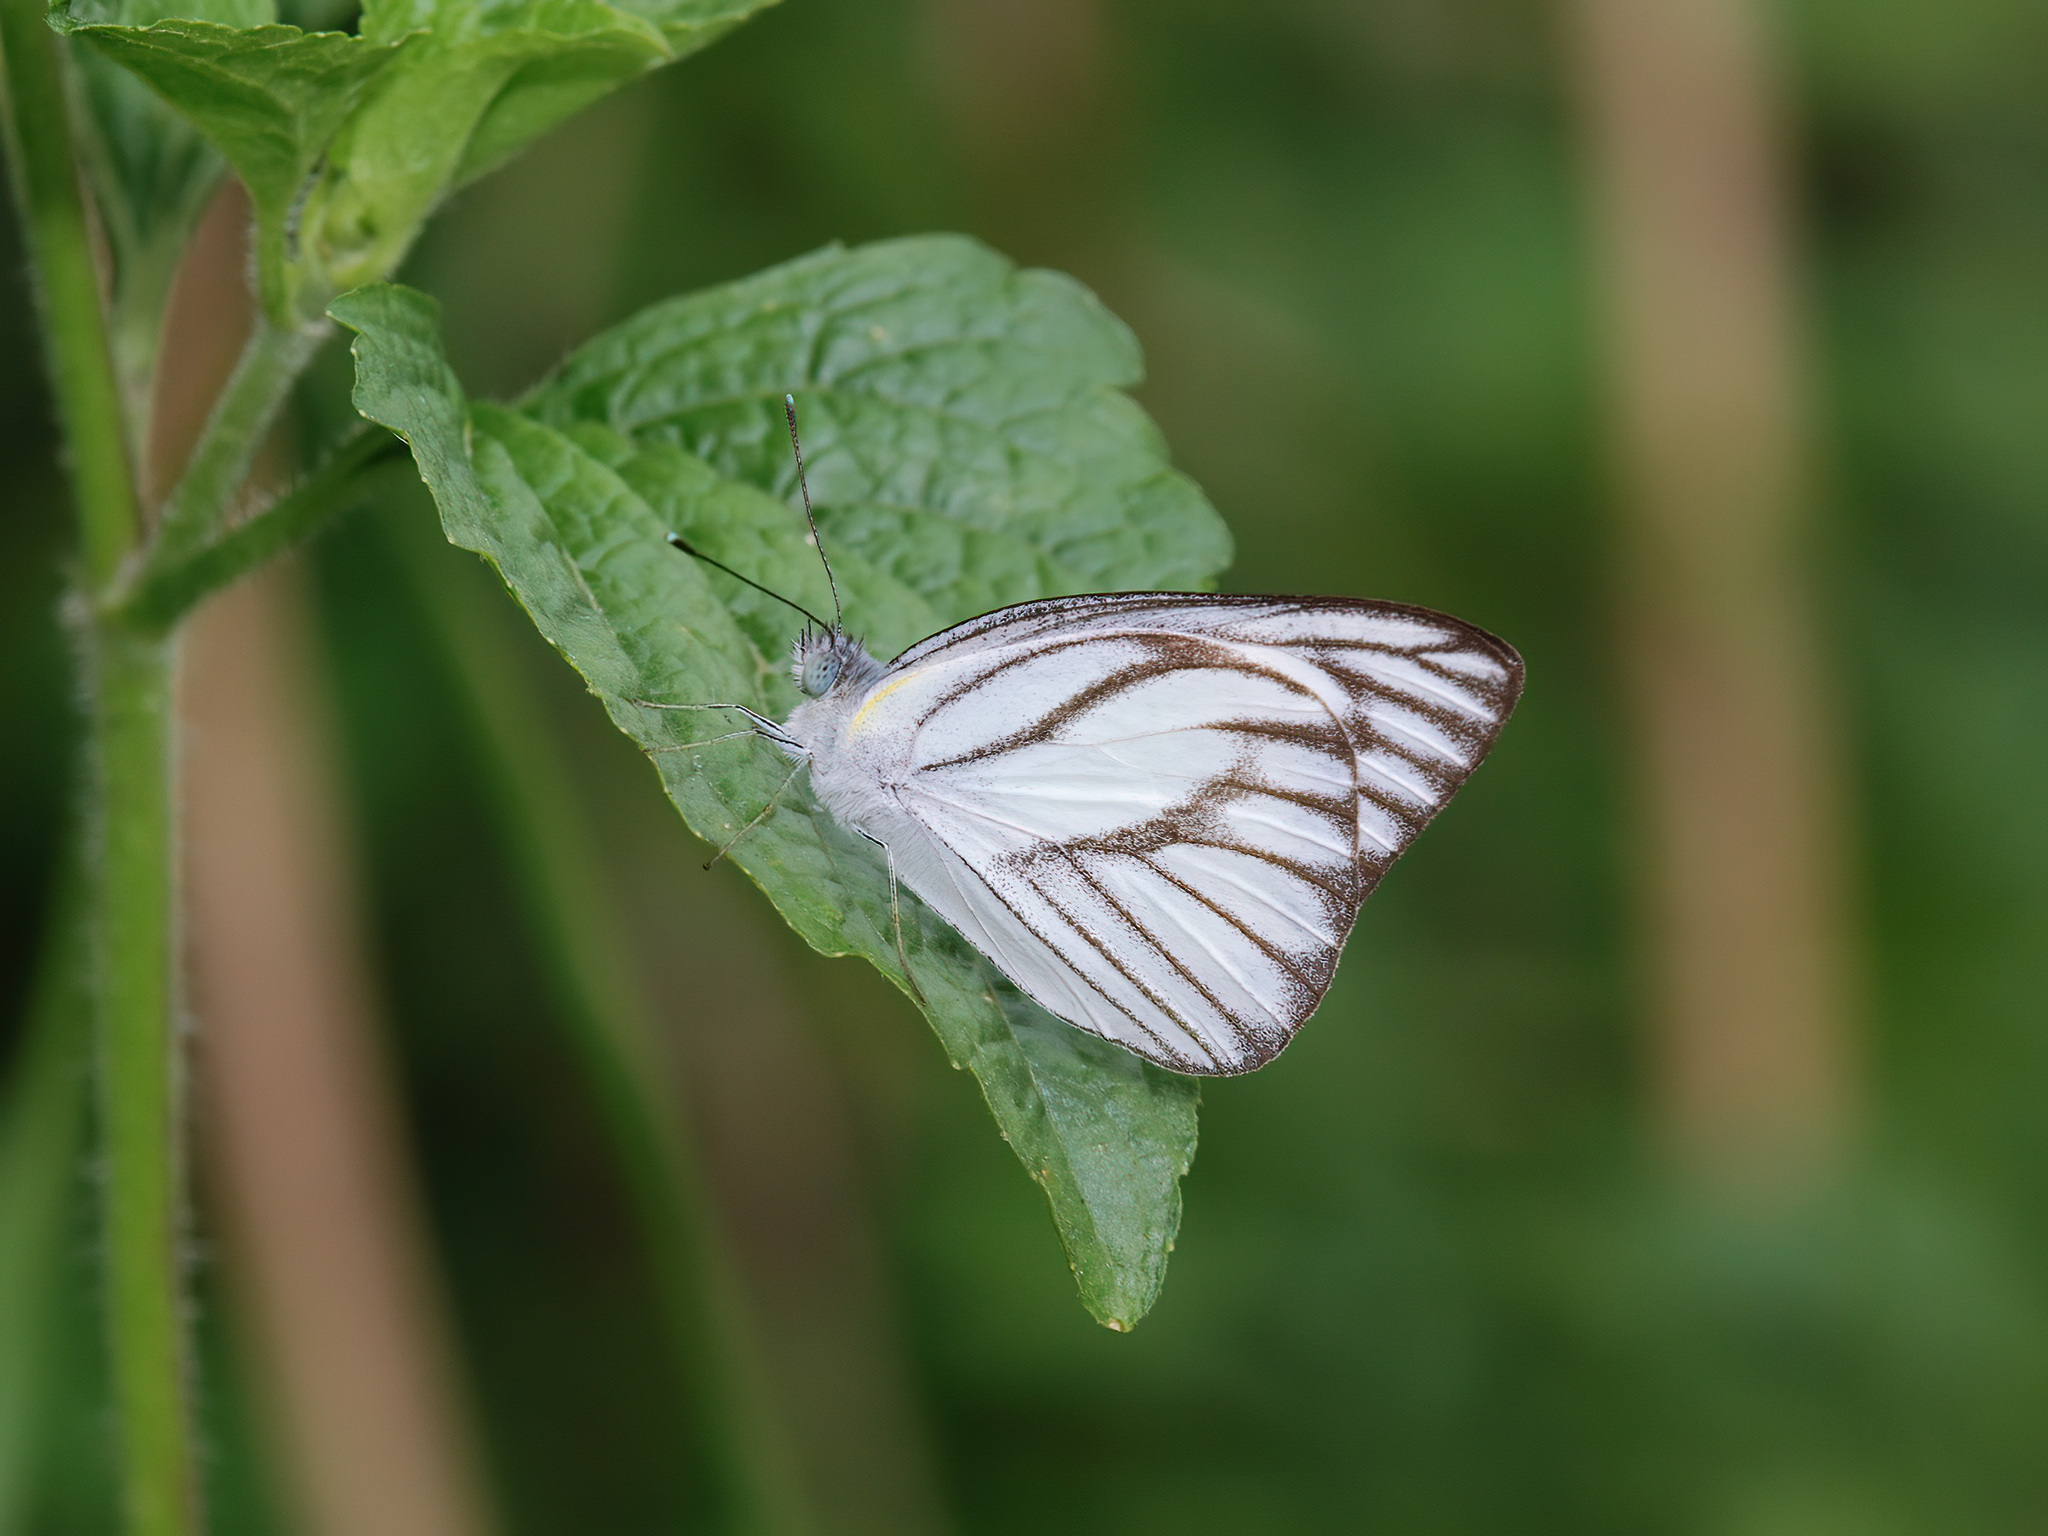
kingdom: Animalia
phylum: Arthropoda
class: Insecta
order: Lepidoptera
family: Pieridae
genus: Appias
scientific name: Appias libythea
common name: Striped albatross
